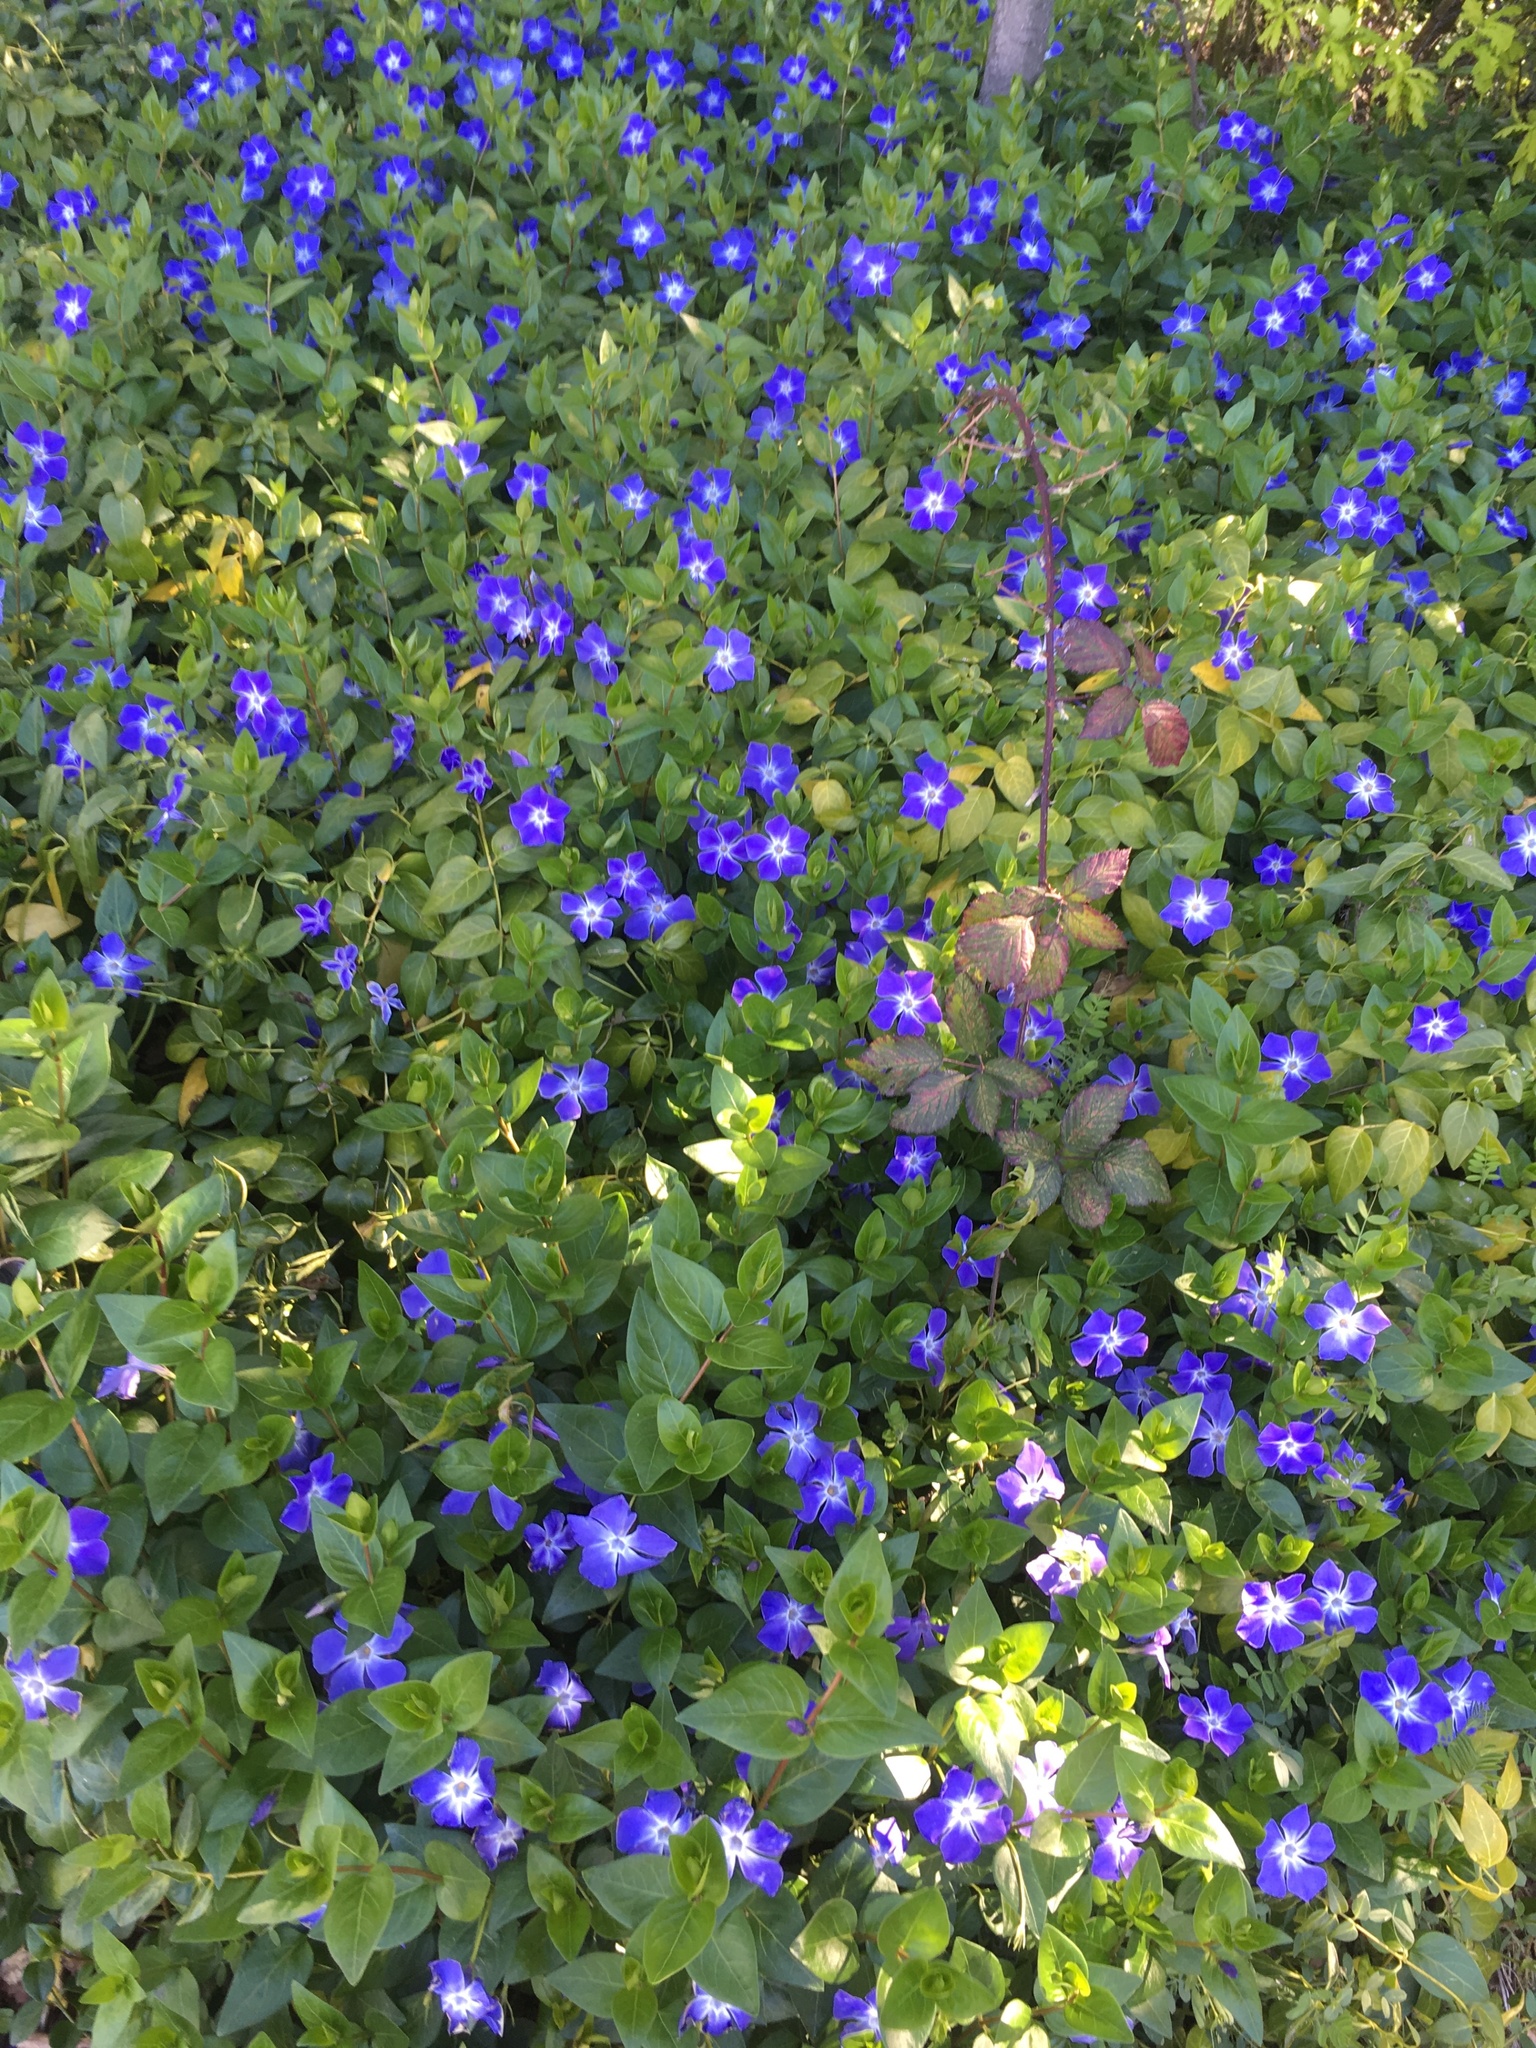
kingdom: Plantae
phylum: Tracheophyta
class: Magnoliopsida
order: Gentianales
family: Apocynaceae
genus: Vinca
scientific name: Vinca major
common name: Greater periwinkle
